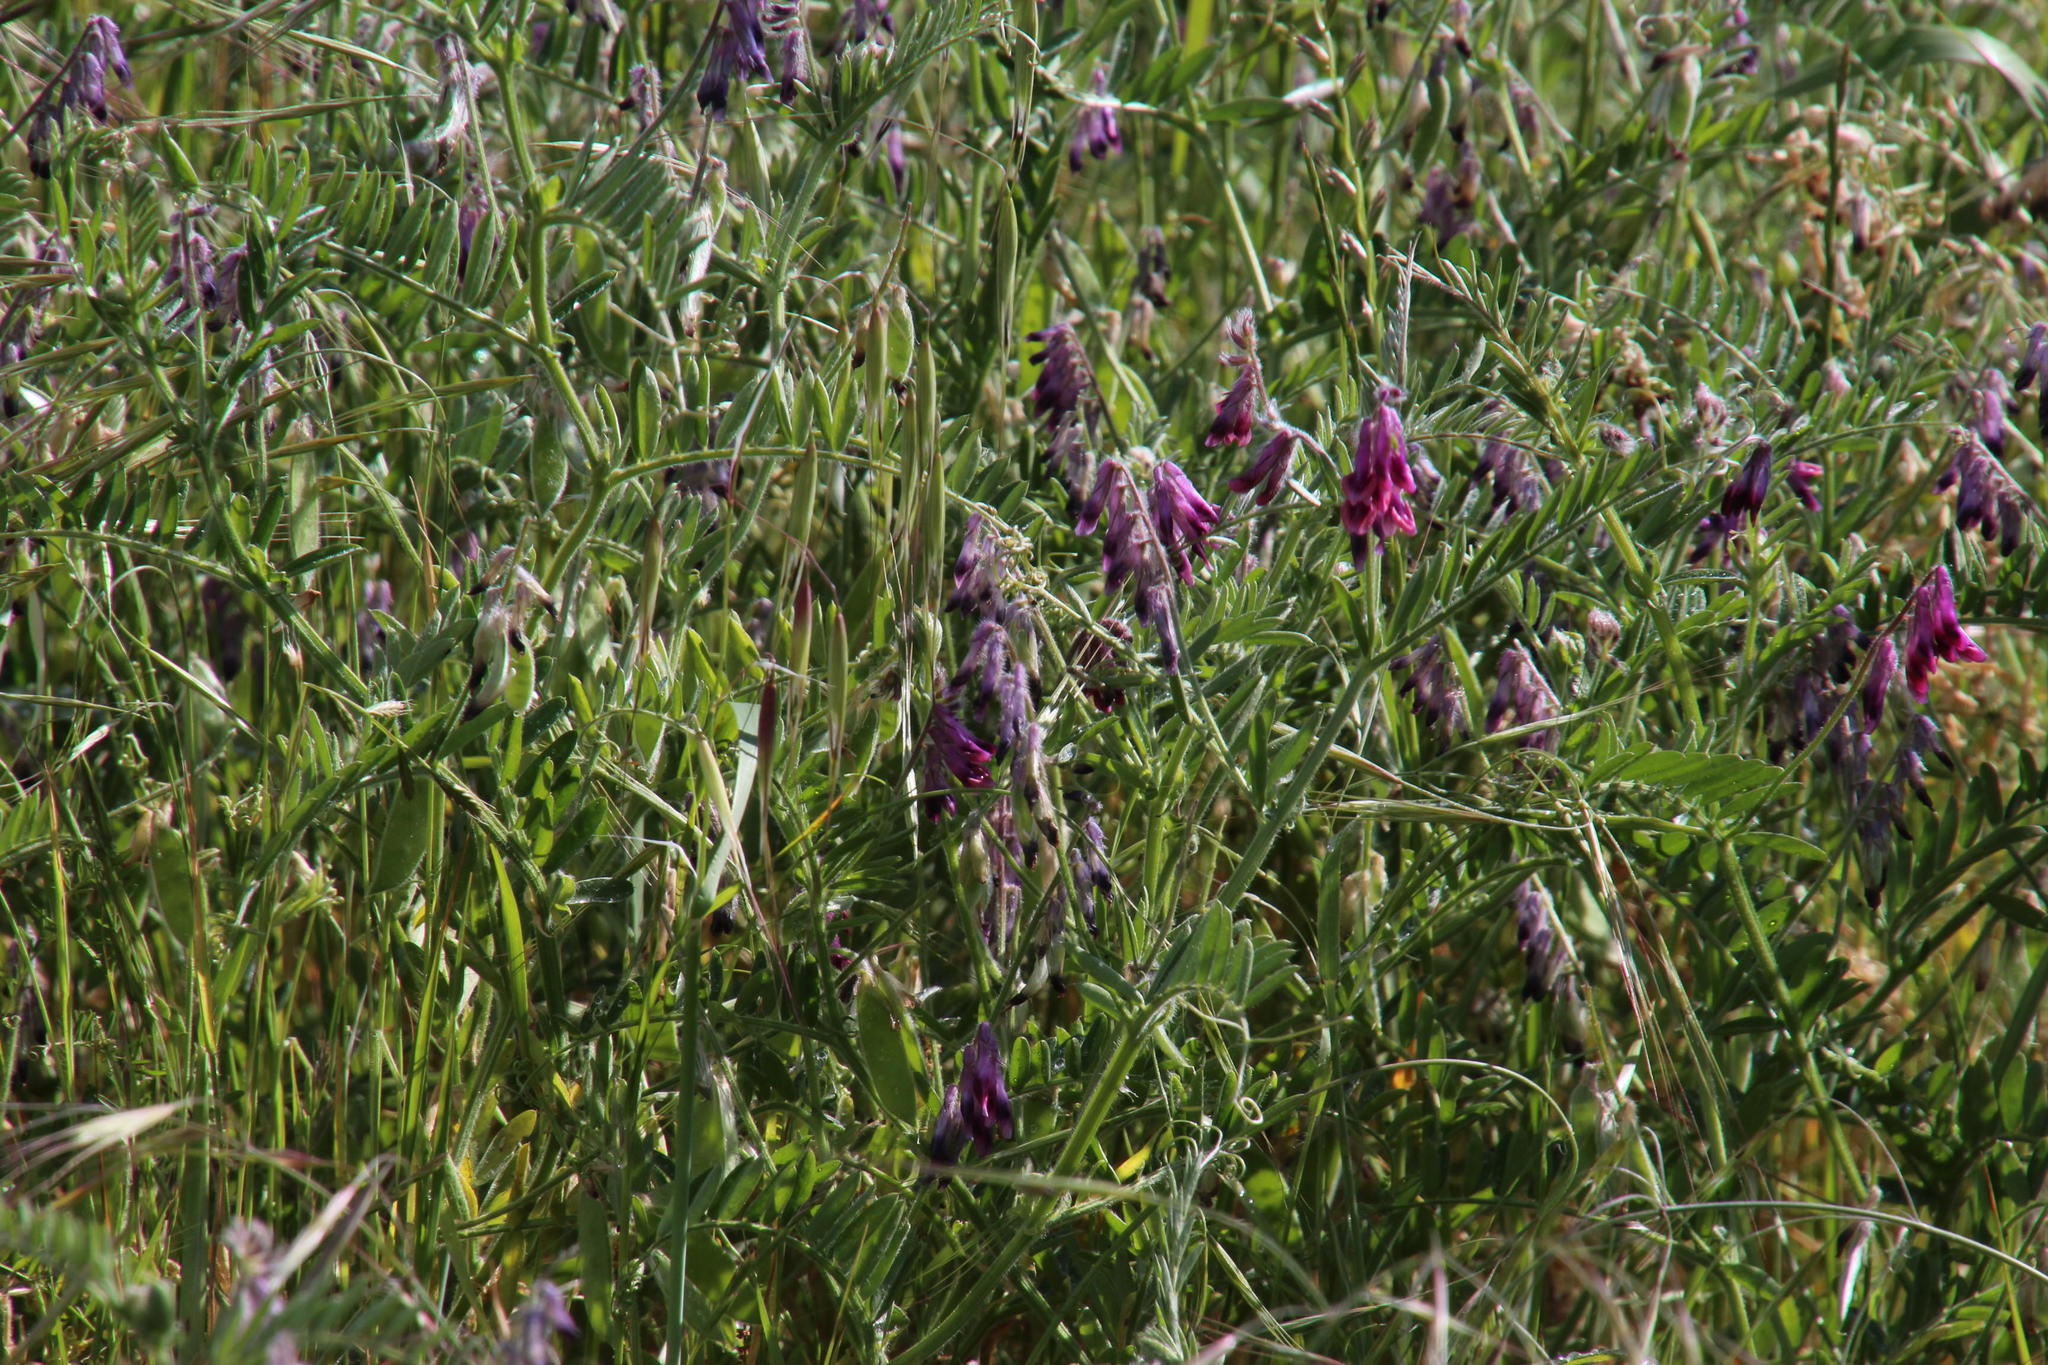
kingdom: Plantae
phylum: Tracheophyta
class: Magnoliopsida
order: Fabales
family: Fabaceae
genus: Vicia
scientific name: Vicia benghalensis
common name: Purple vetch
